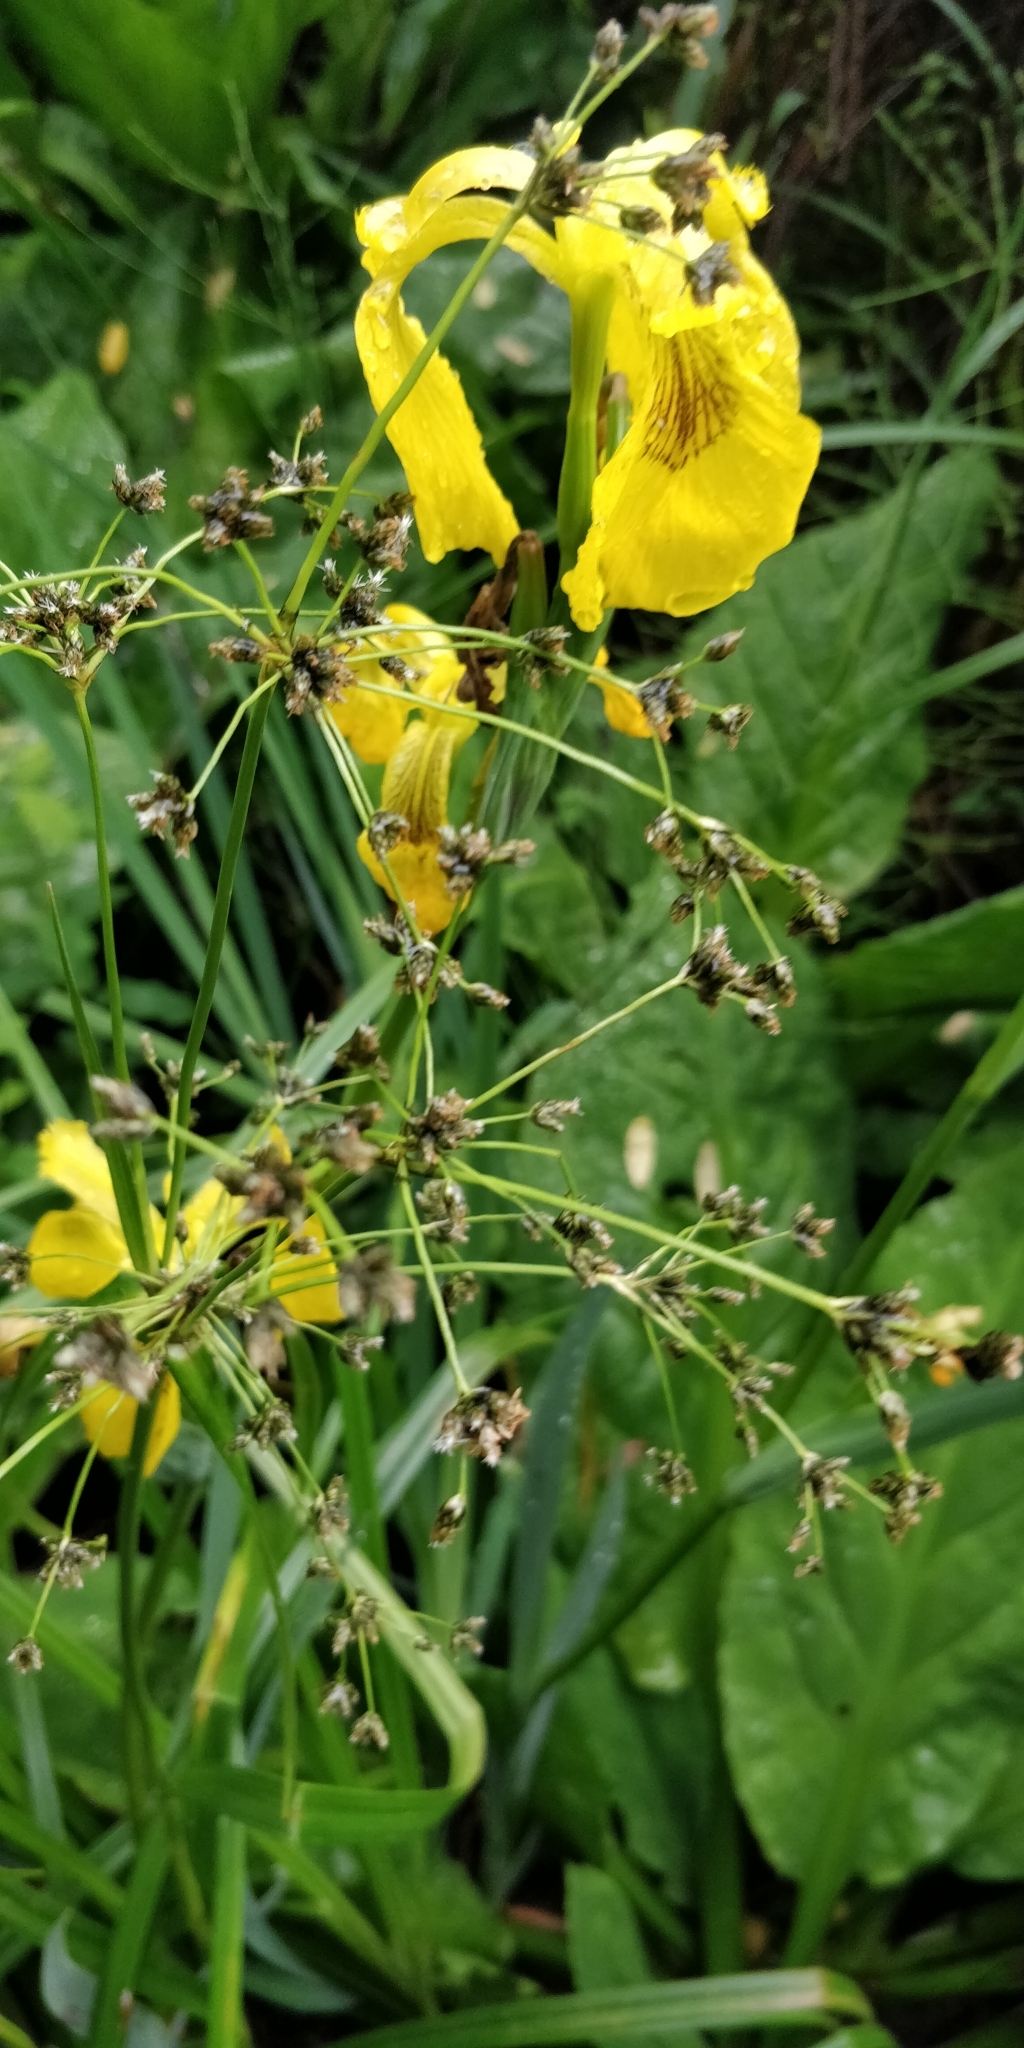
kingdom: Plantae
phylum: Tracheophyta
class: Liliopsida
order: Asparagales
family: Iridaceae
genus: Iris
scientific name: Iris pseudacorus
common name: Yellow flag
